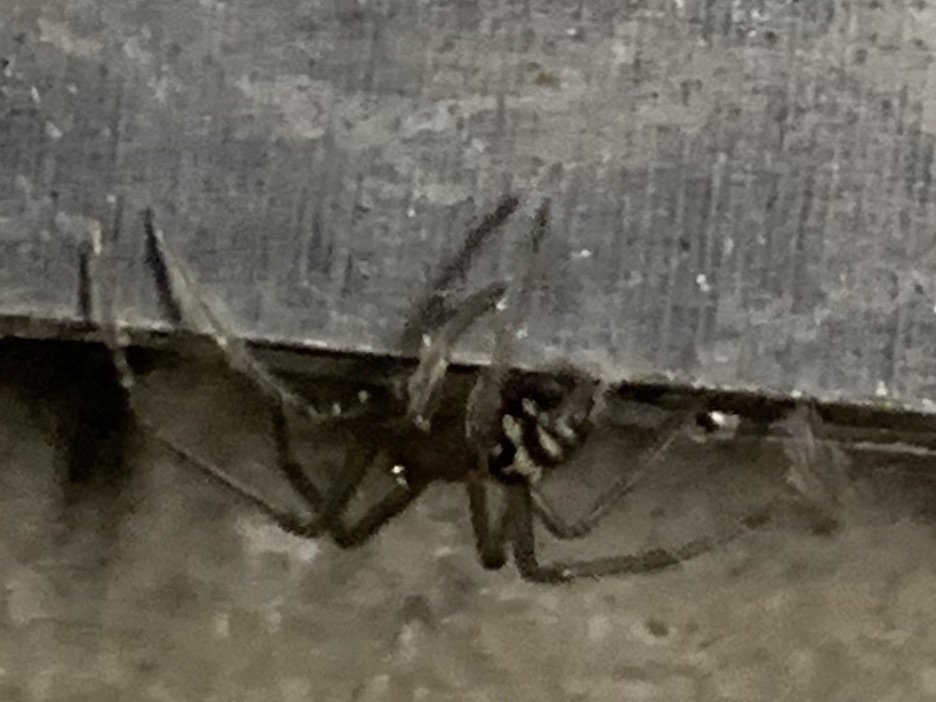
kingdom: Animalia
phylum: Arthropoda
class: Arachnida
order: Araneae
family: Theridiidae
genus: Steatoda
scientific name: Steatoda grossa
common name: False black widow
